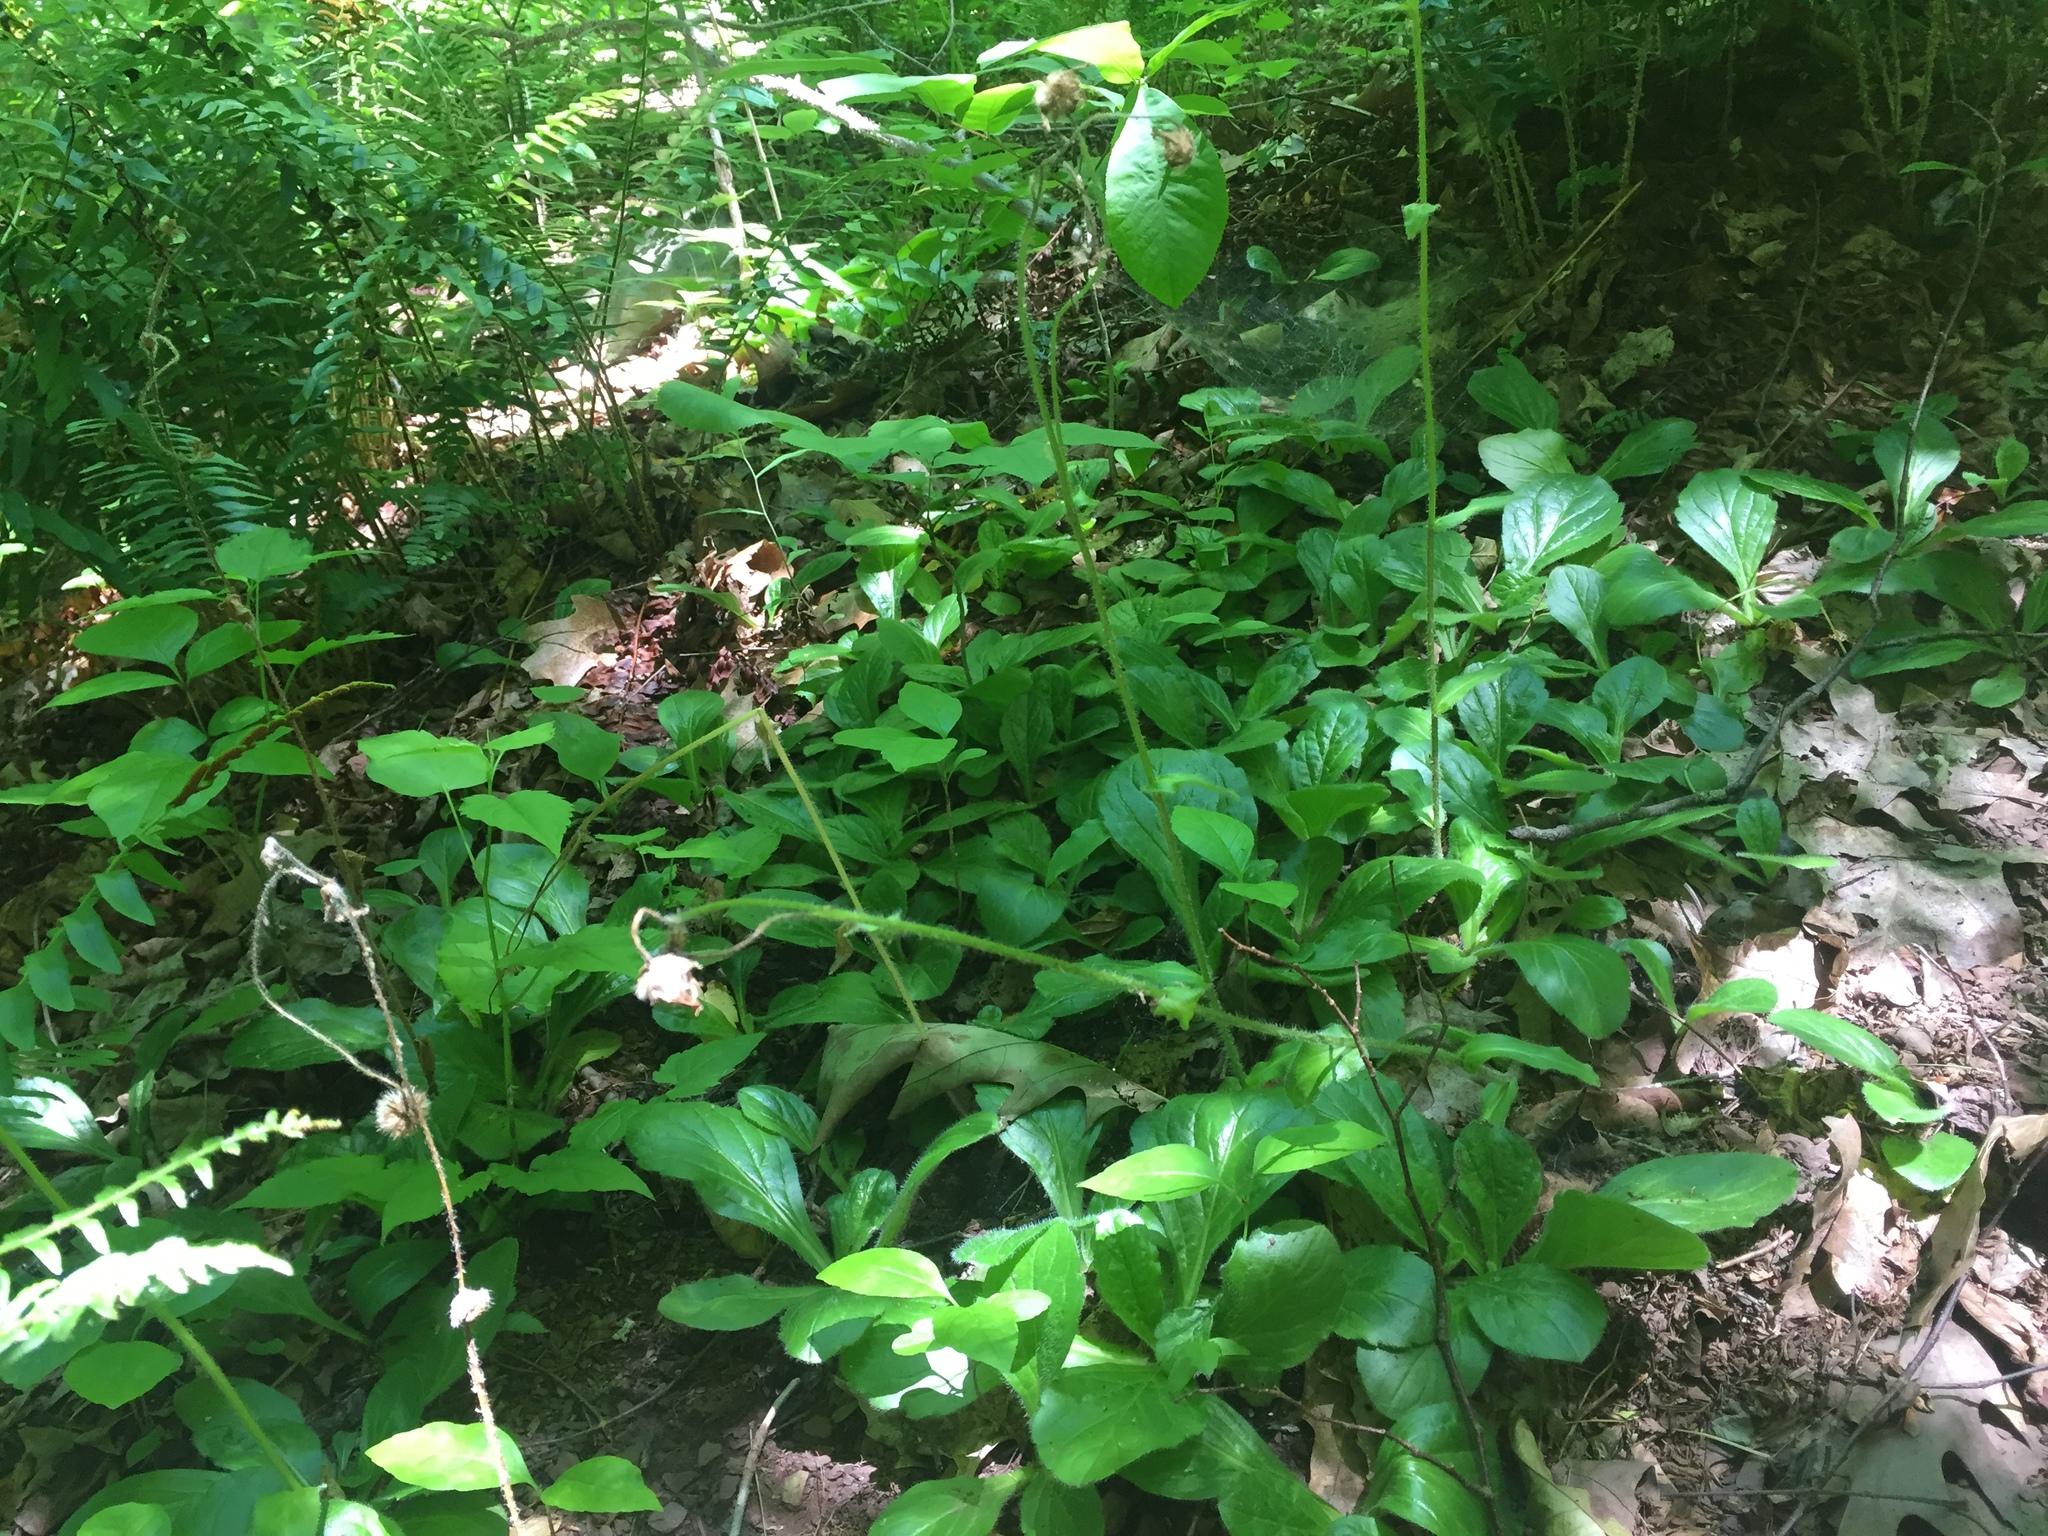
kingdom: Plantae
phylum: Tracheophyta
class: Magnoliopsida
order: Asterales
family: Asteraceae
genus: Erigeron
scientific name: Erigeron pulchellus
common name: Hairy fleabane
